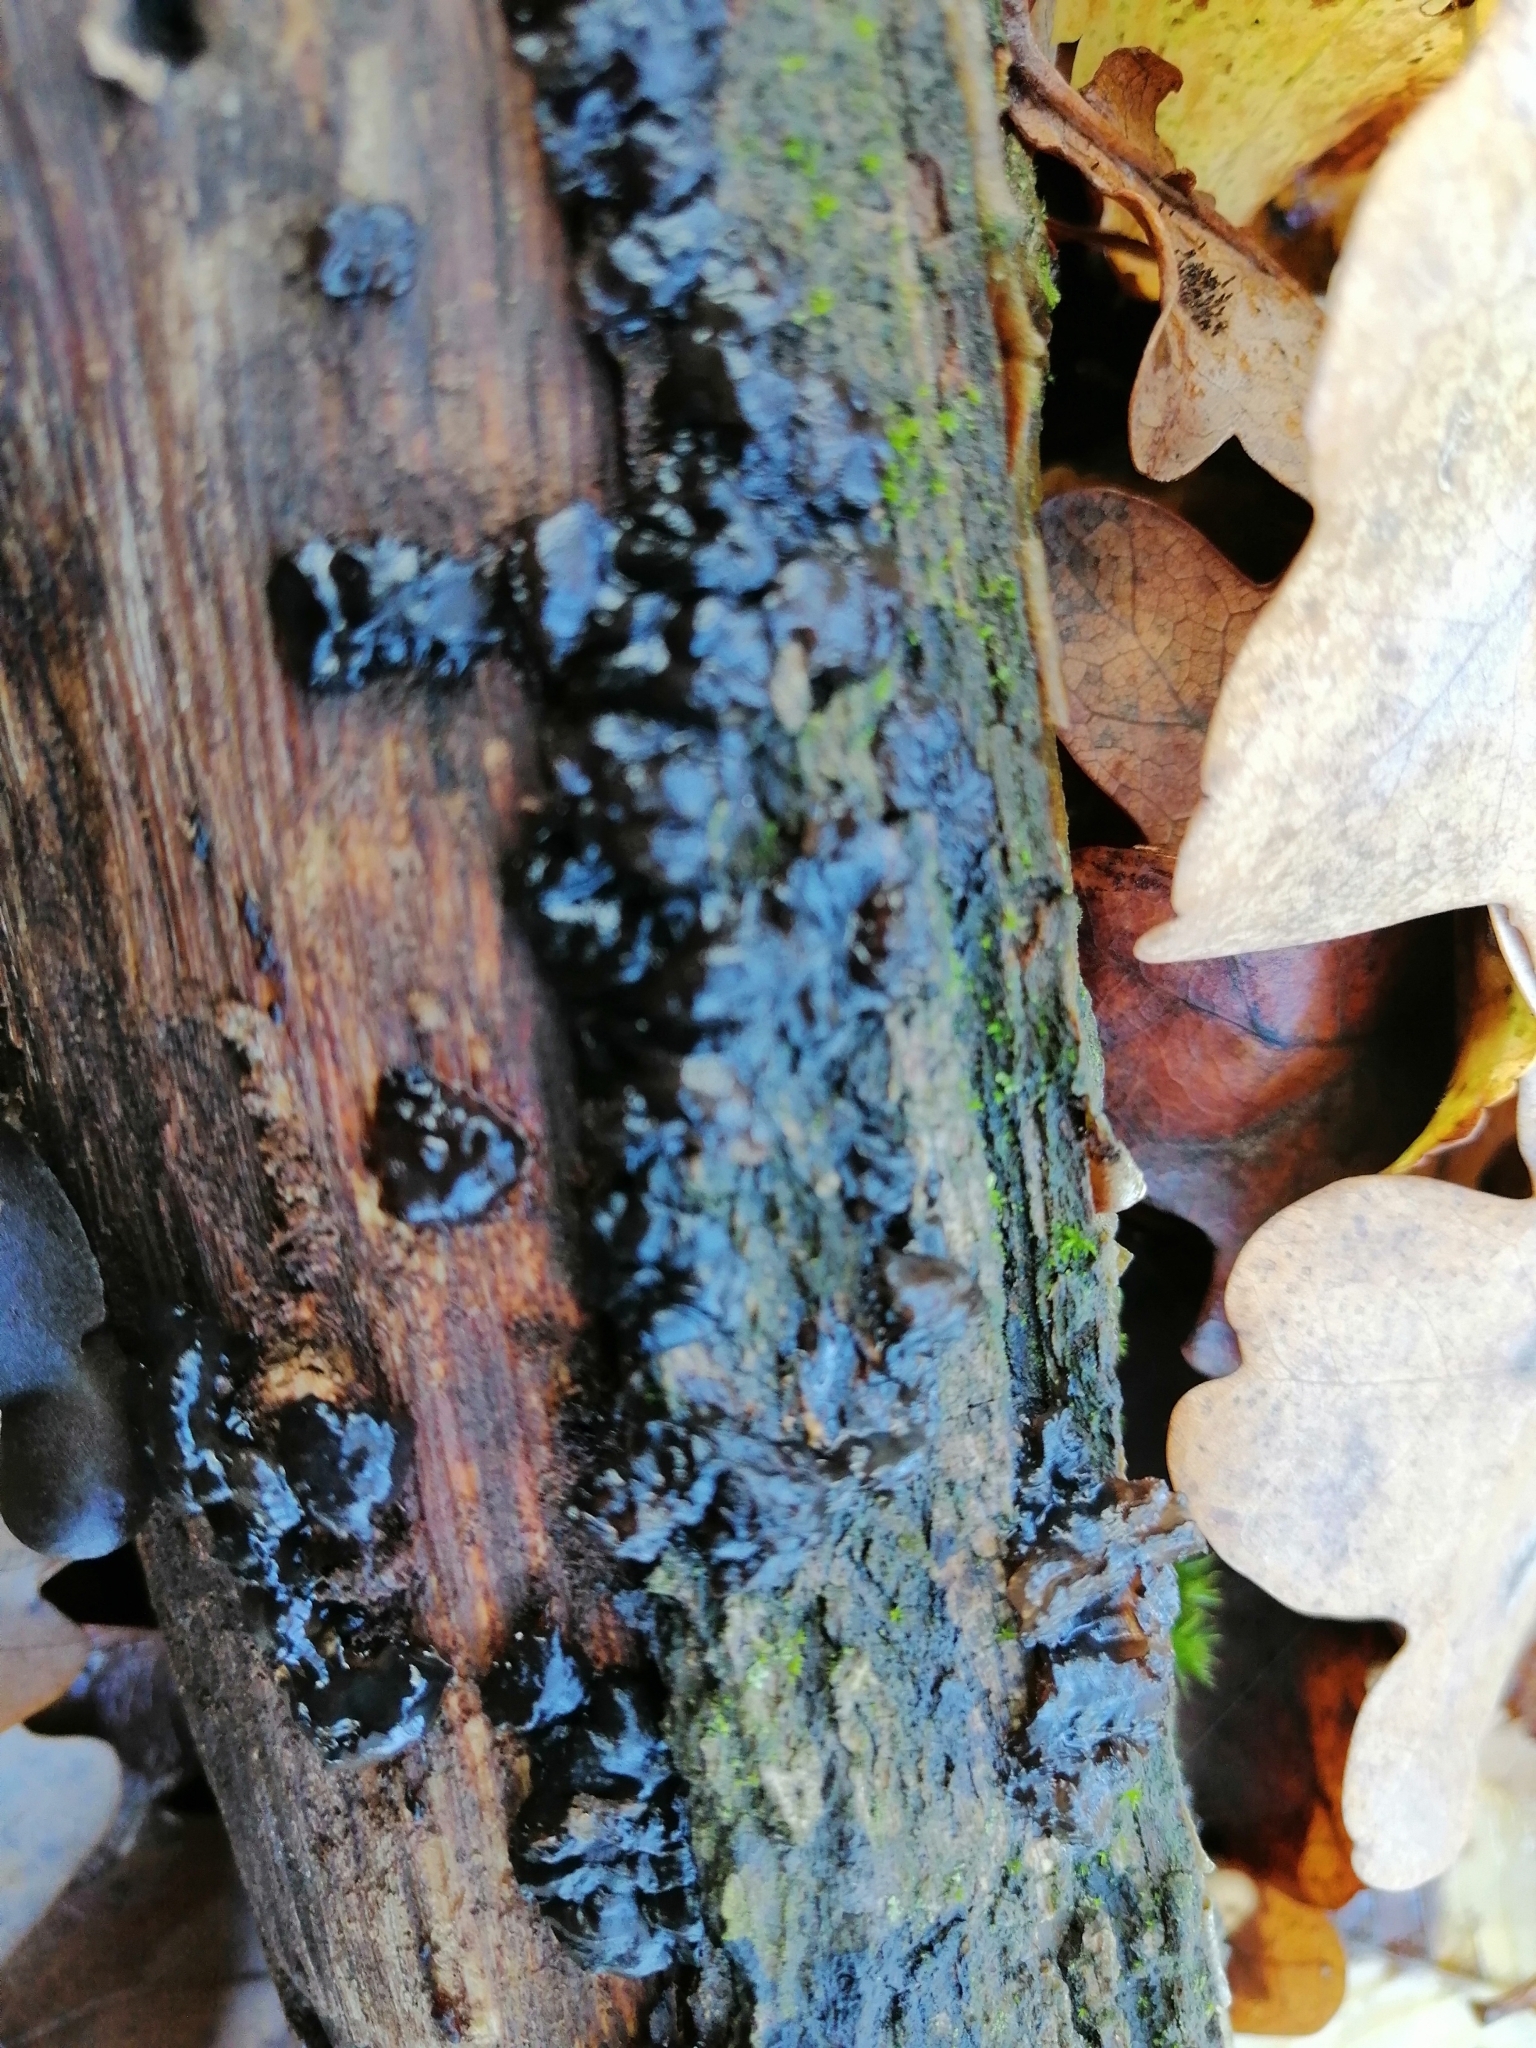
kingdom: Fungi
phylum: Basidiomycota
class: Agaricomycetes
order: Auriculariales
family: Auriculariaceae
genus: Exidia
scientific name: Exidia nigricans
